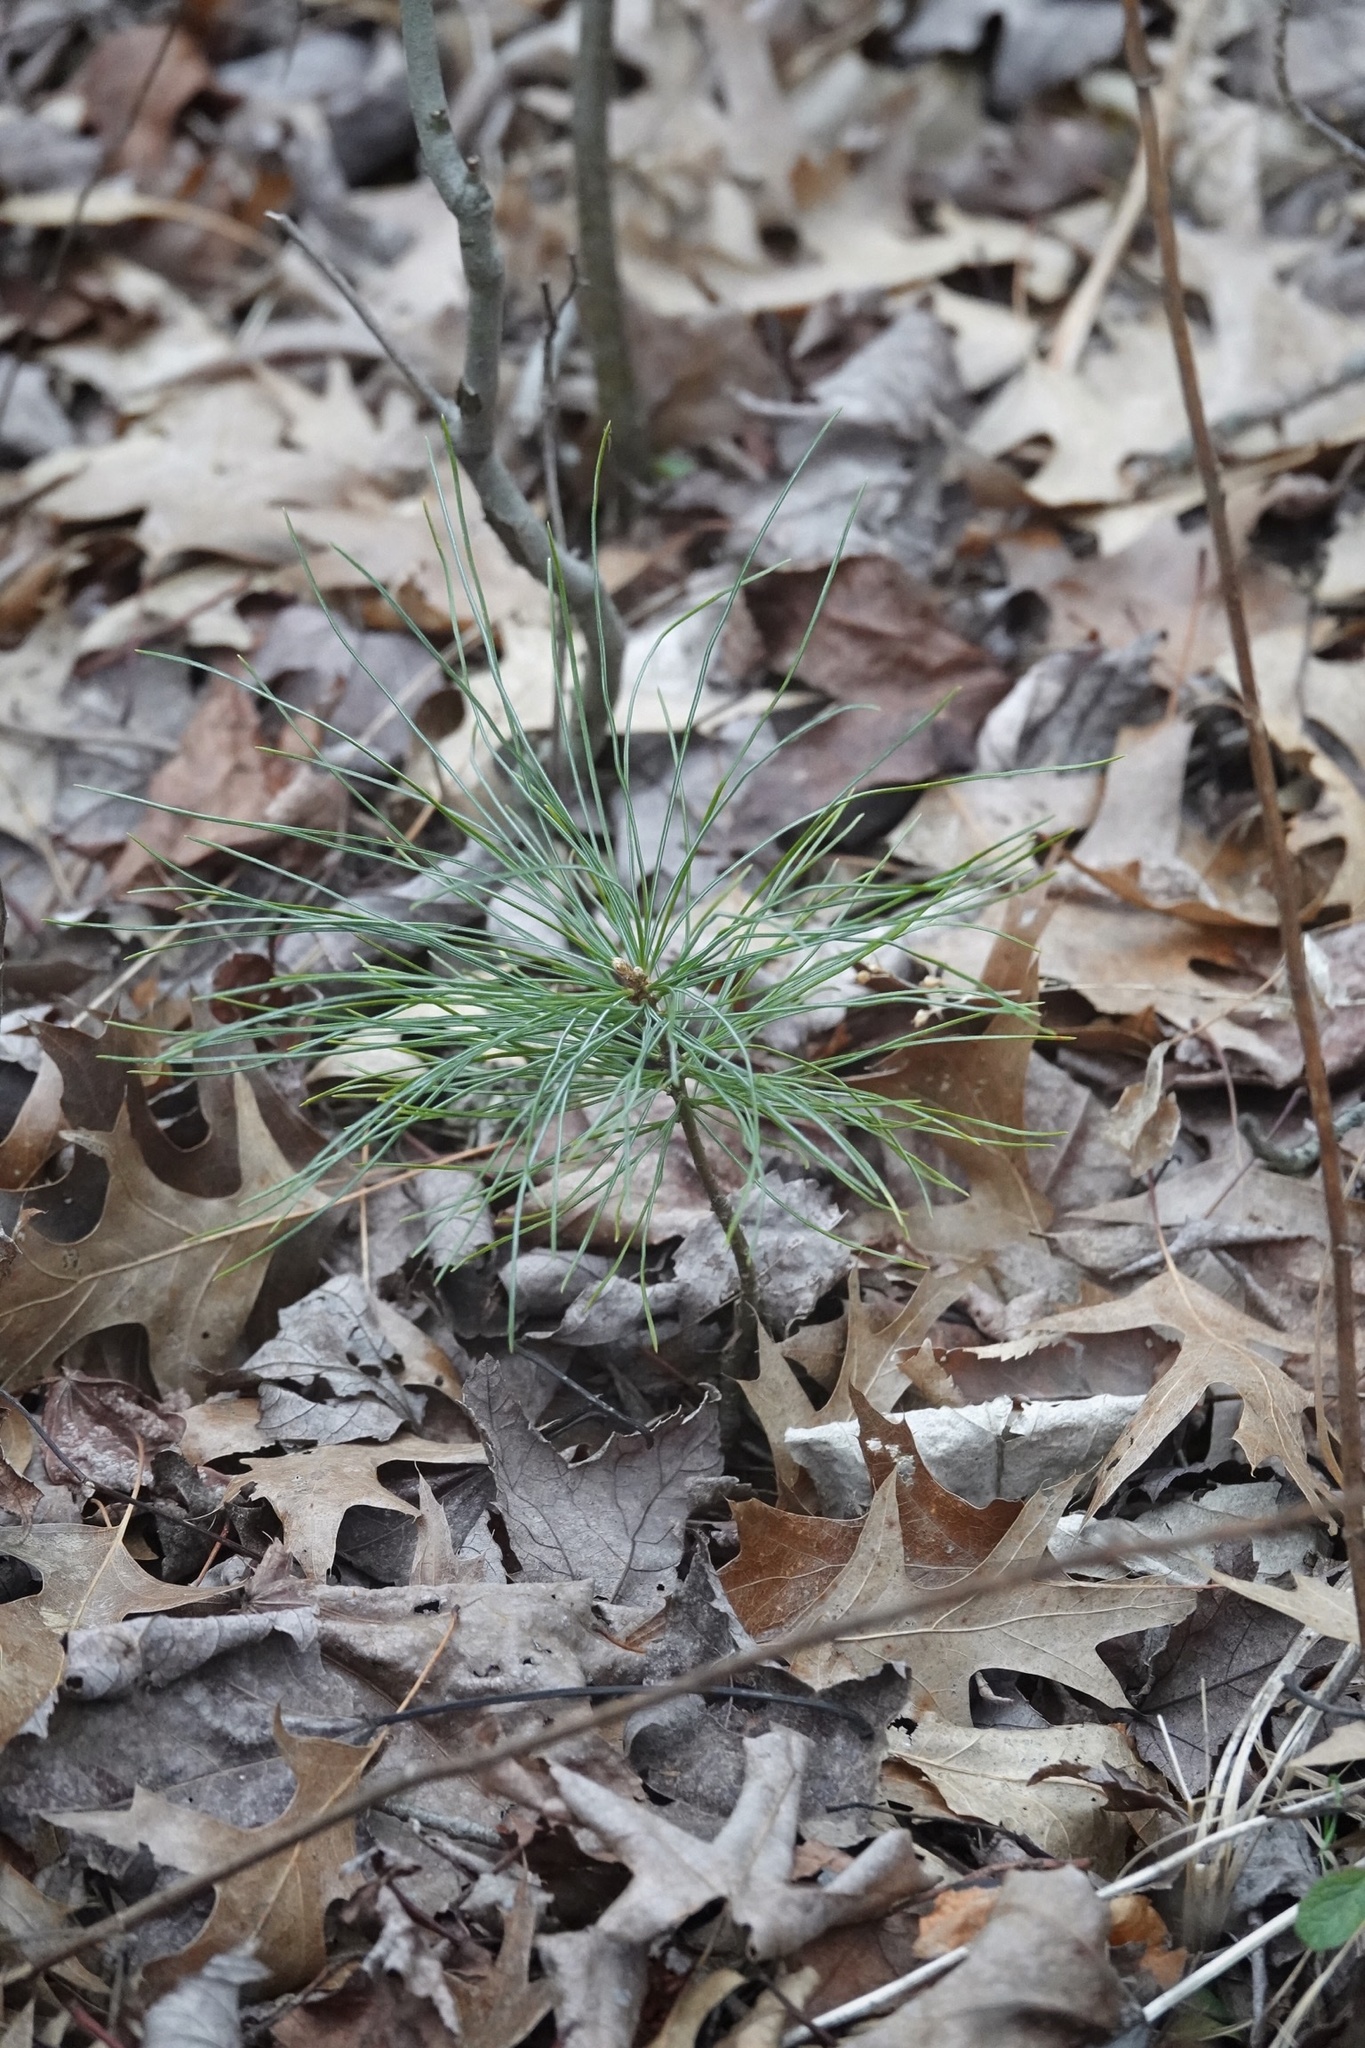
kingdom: Plantae
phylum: Tracheophyta
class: Pinopsida
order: Pinales
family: Pinaceae
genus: Pinus
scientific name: Pinus strobus
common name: Weymouth pine
